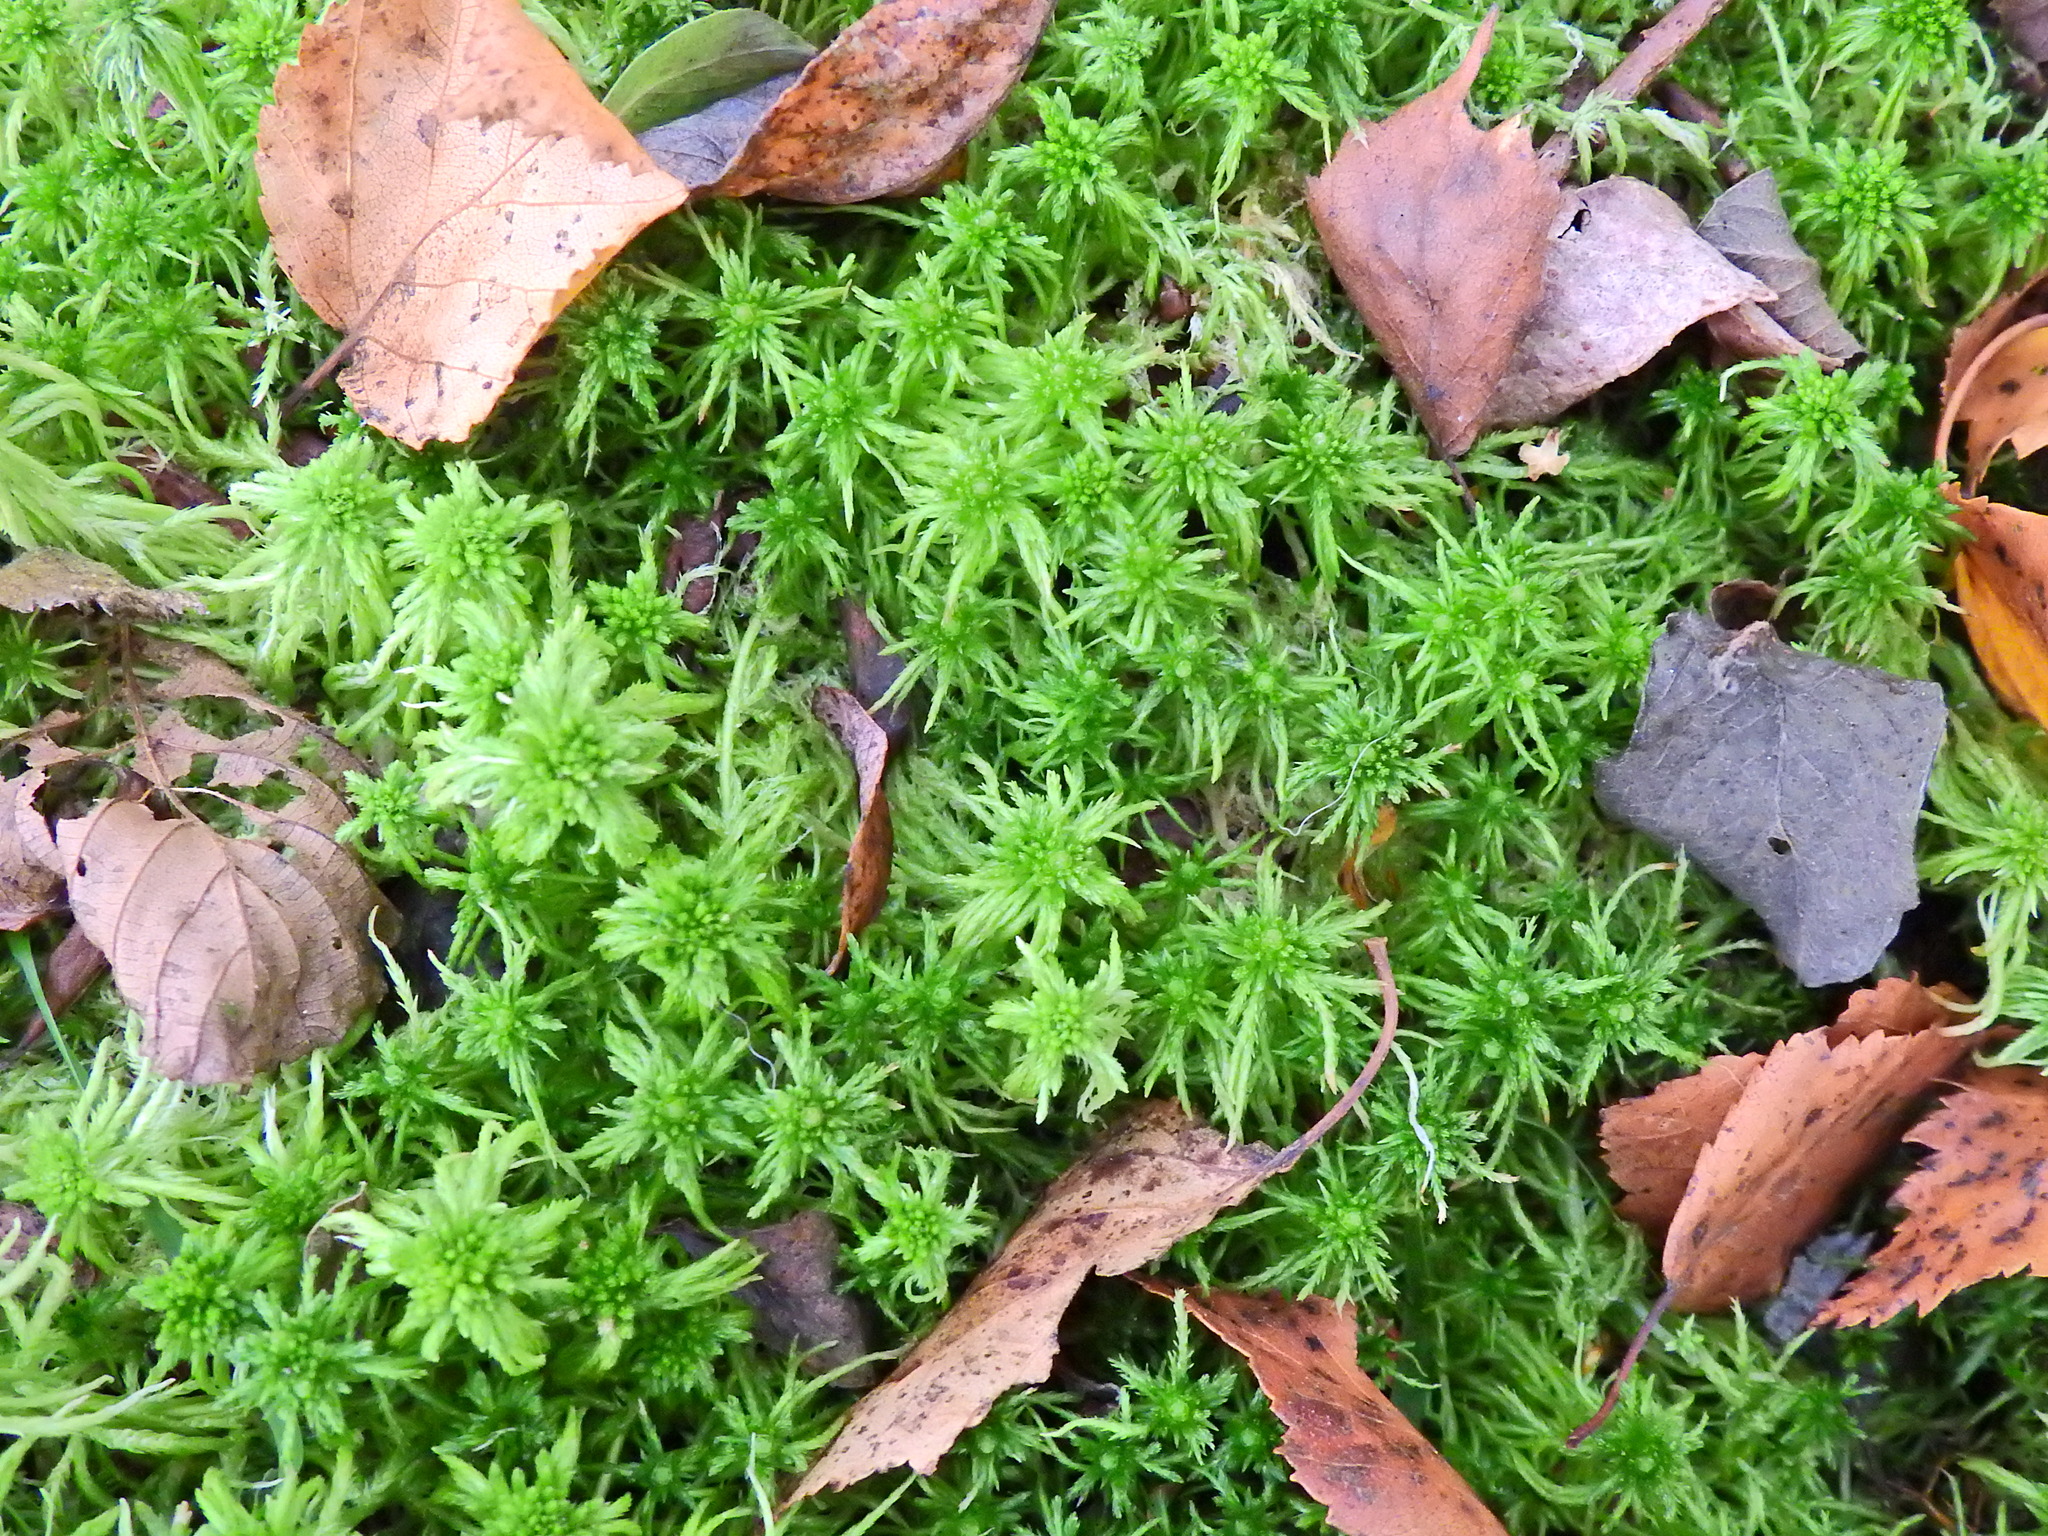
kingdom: Plantae
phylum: Bryophyta
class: Sphagnopsida
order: Sphagnales
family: Sphagnaceae
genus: Sphagnum
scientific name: Sphagnum fimbriatum
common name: Fringed peat moss
